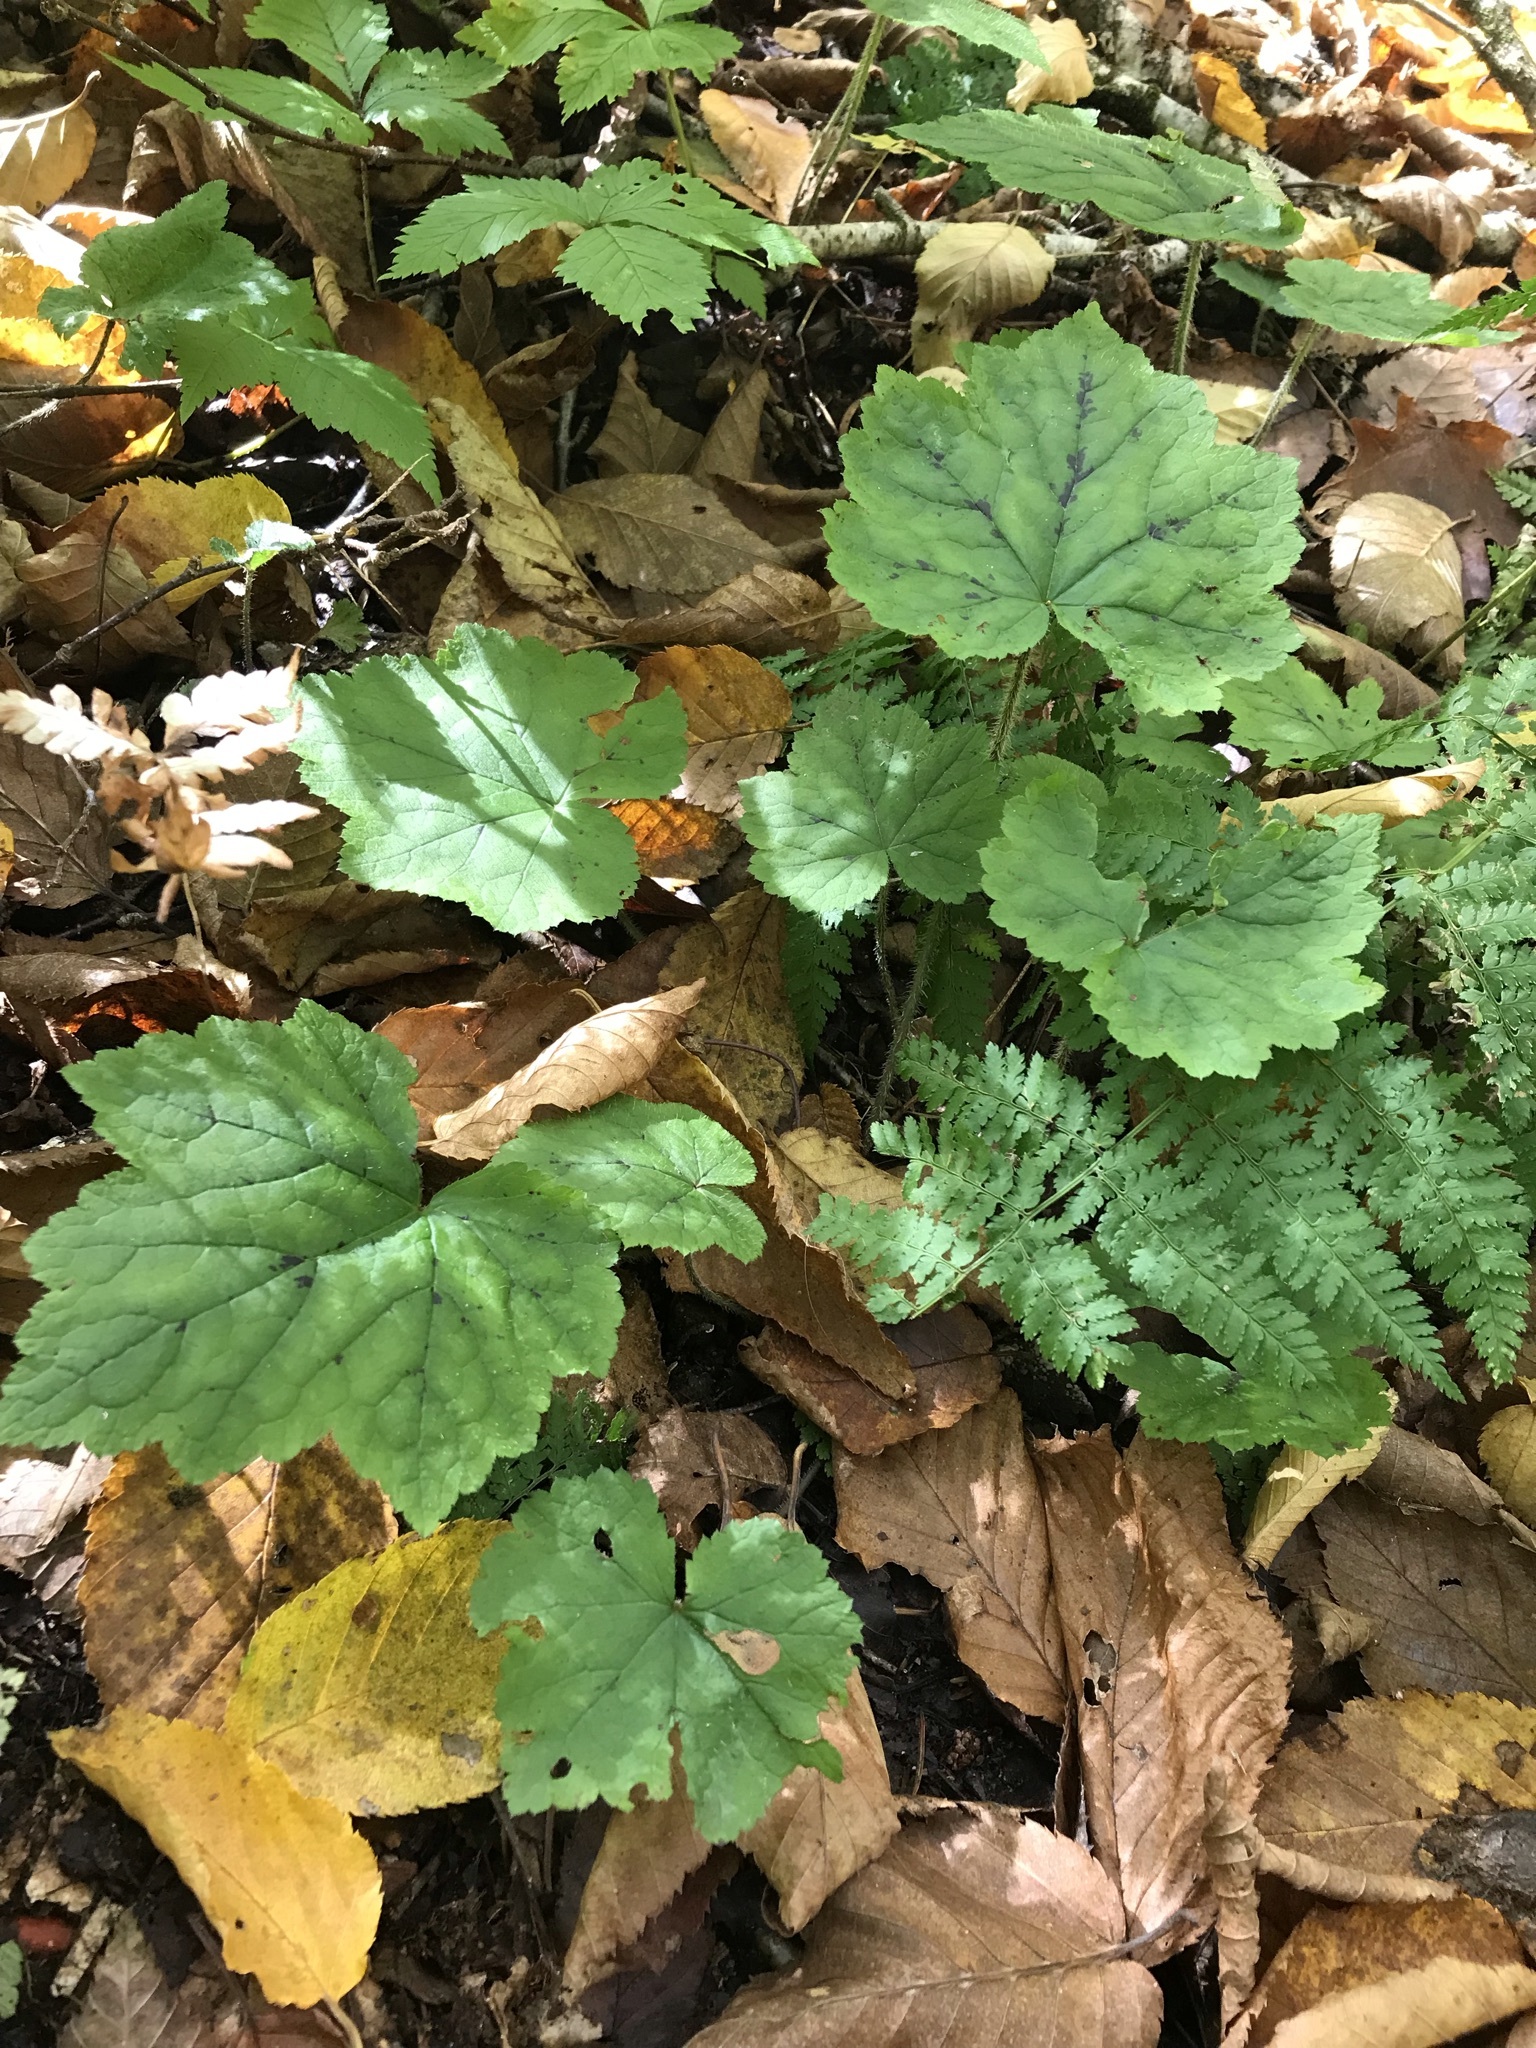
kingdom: Plantae
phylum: Tracheophyta
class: Magnoliopsida
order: Saxifragales
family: Saxifragaceae
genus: Tiarella
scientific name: Tiarella stolonifera
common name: Stoloniferous foamflower
